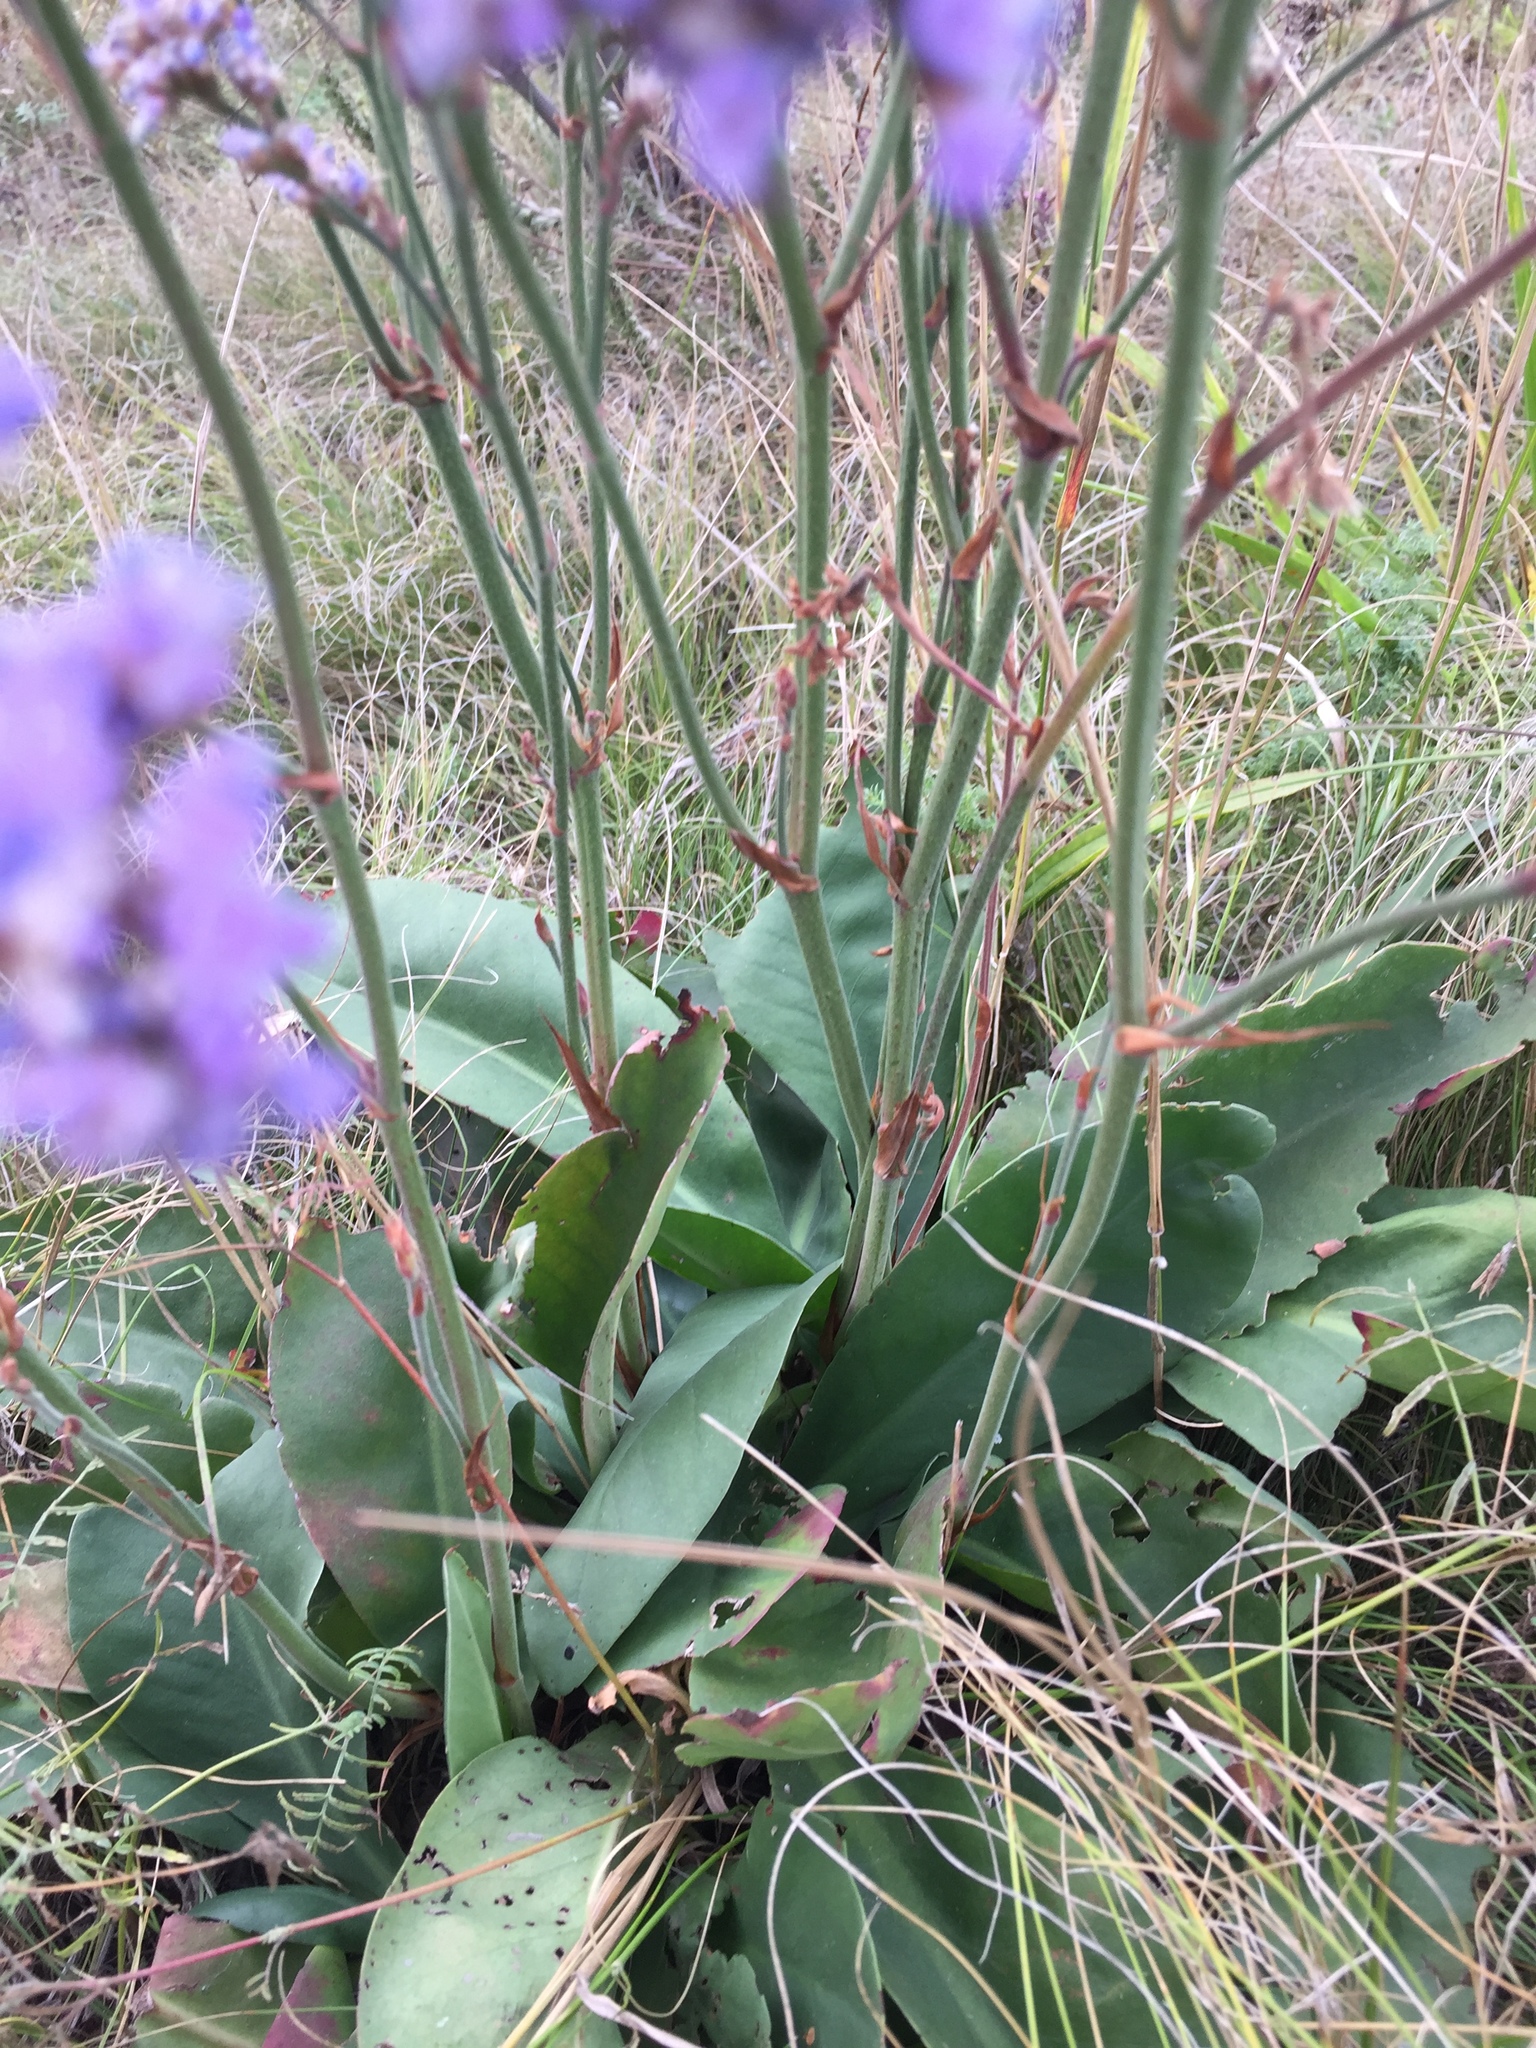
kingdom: Plantae
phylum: Tracheophyta
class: Magnoliopsida
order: Caryophyllales
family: Plumbaginaceae
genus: Limonium
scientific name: Limonium tomentellum
